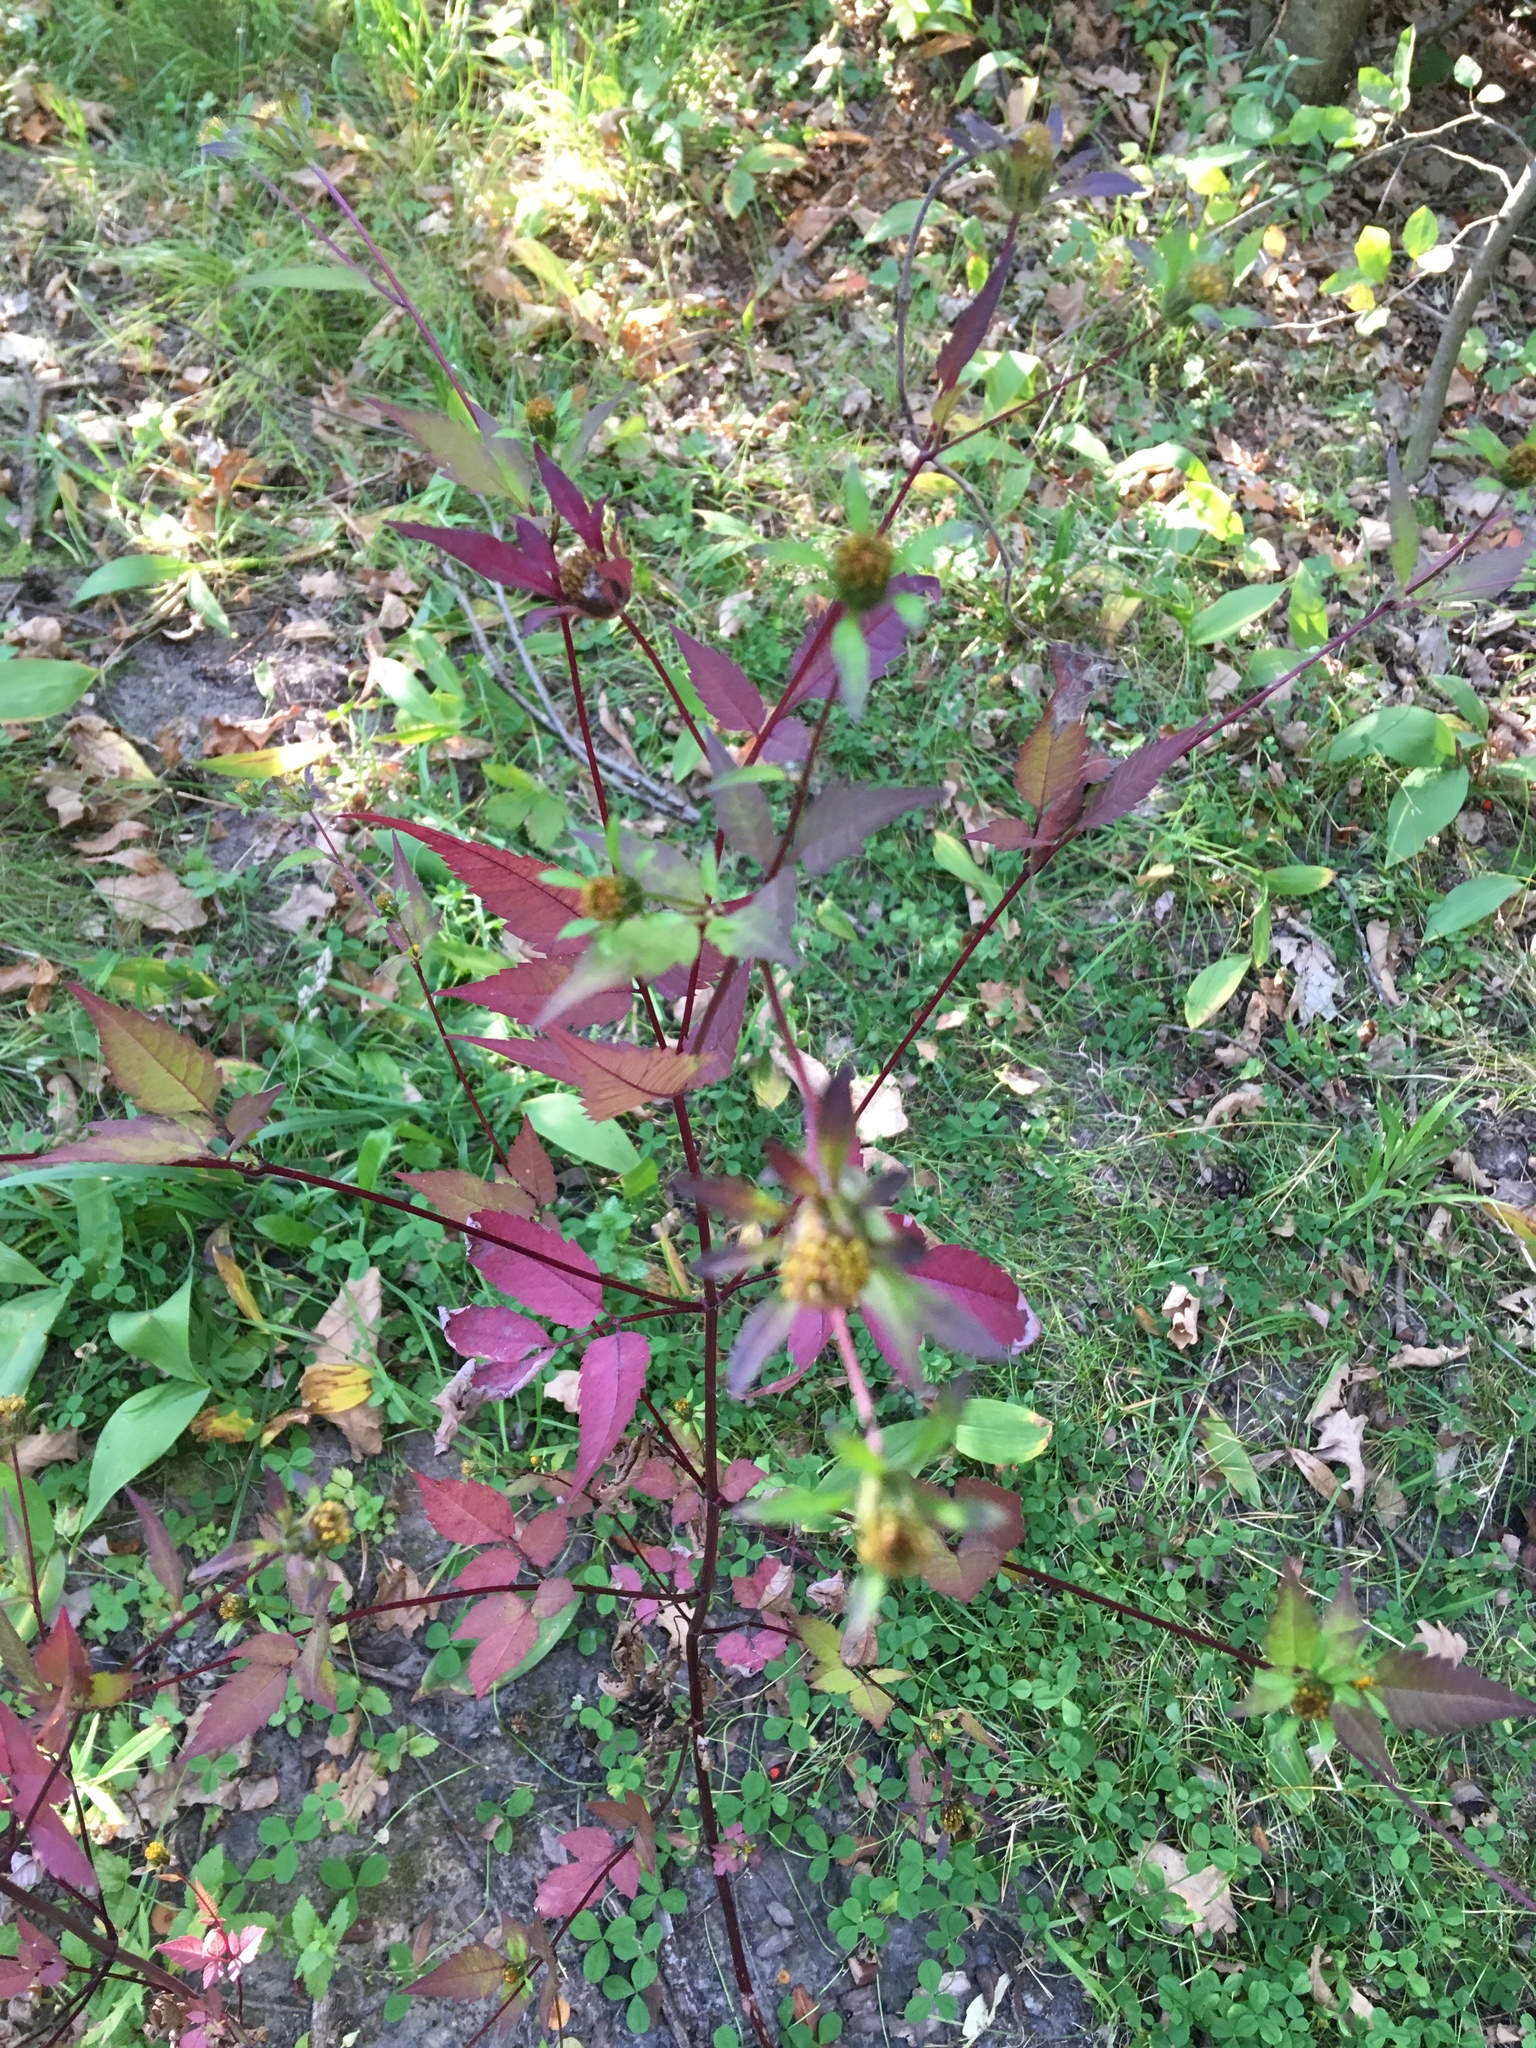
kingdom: Plantae
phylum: Tracheophyta
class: Magnoliopsida
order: Asterales
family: Asteraceae
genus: Bidens
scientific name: Bidens frondosa
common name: Beggarticks
